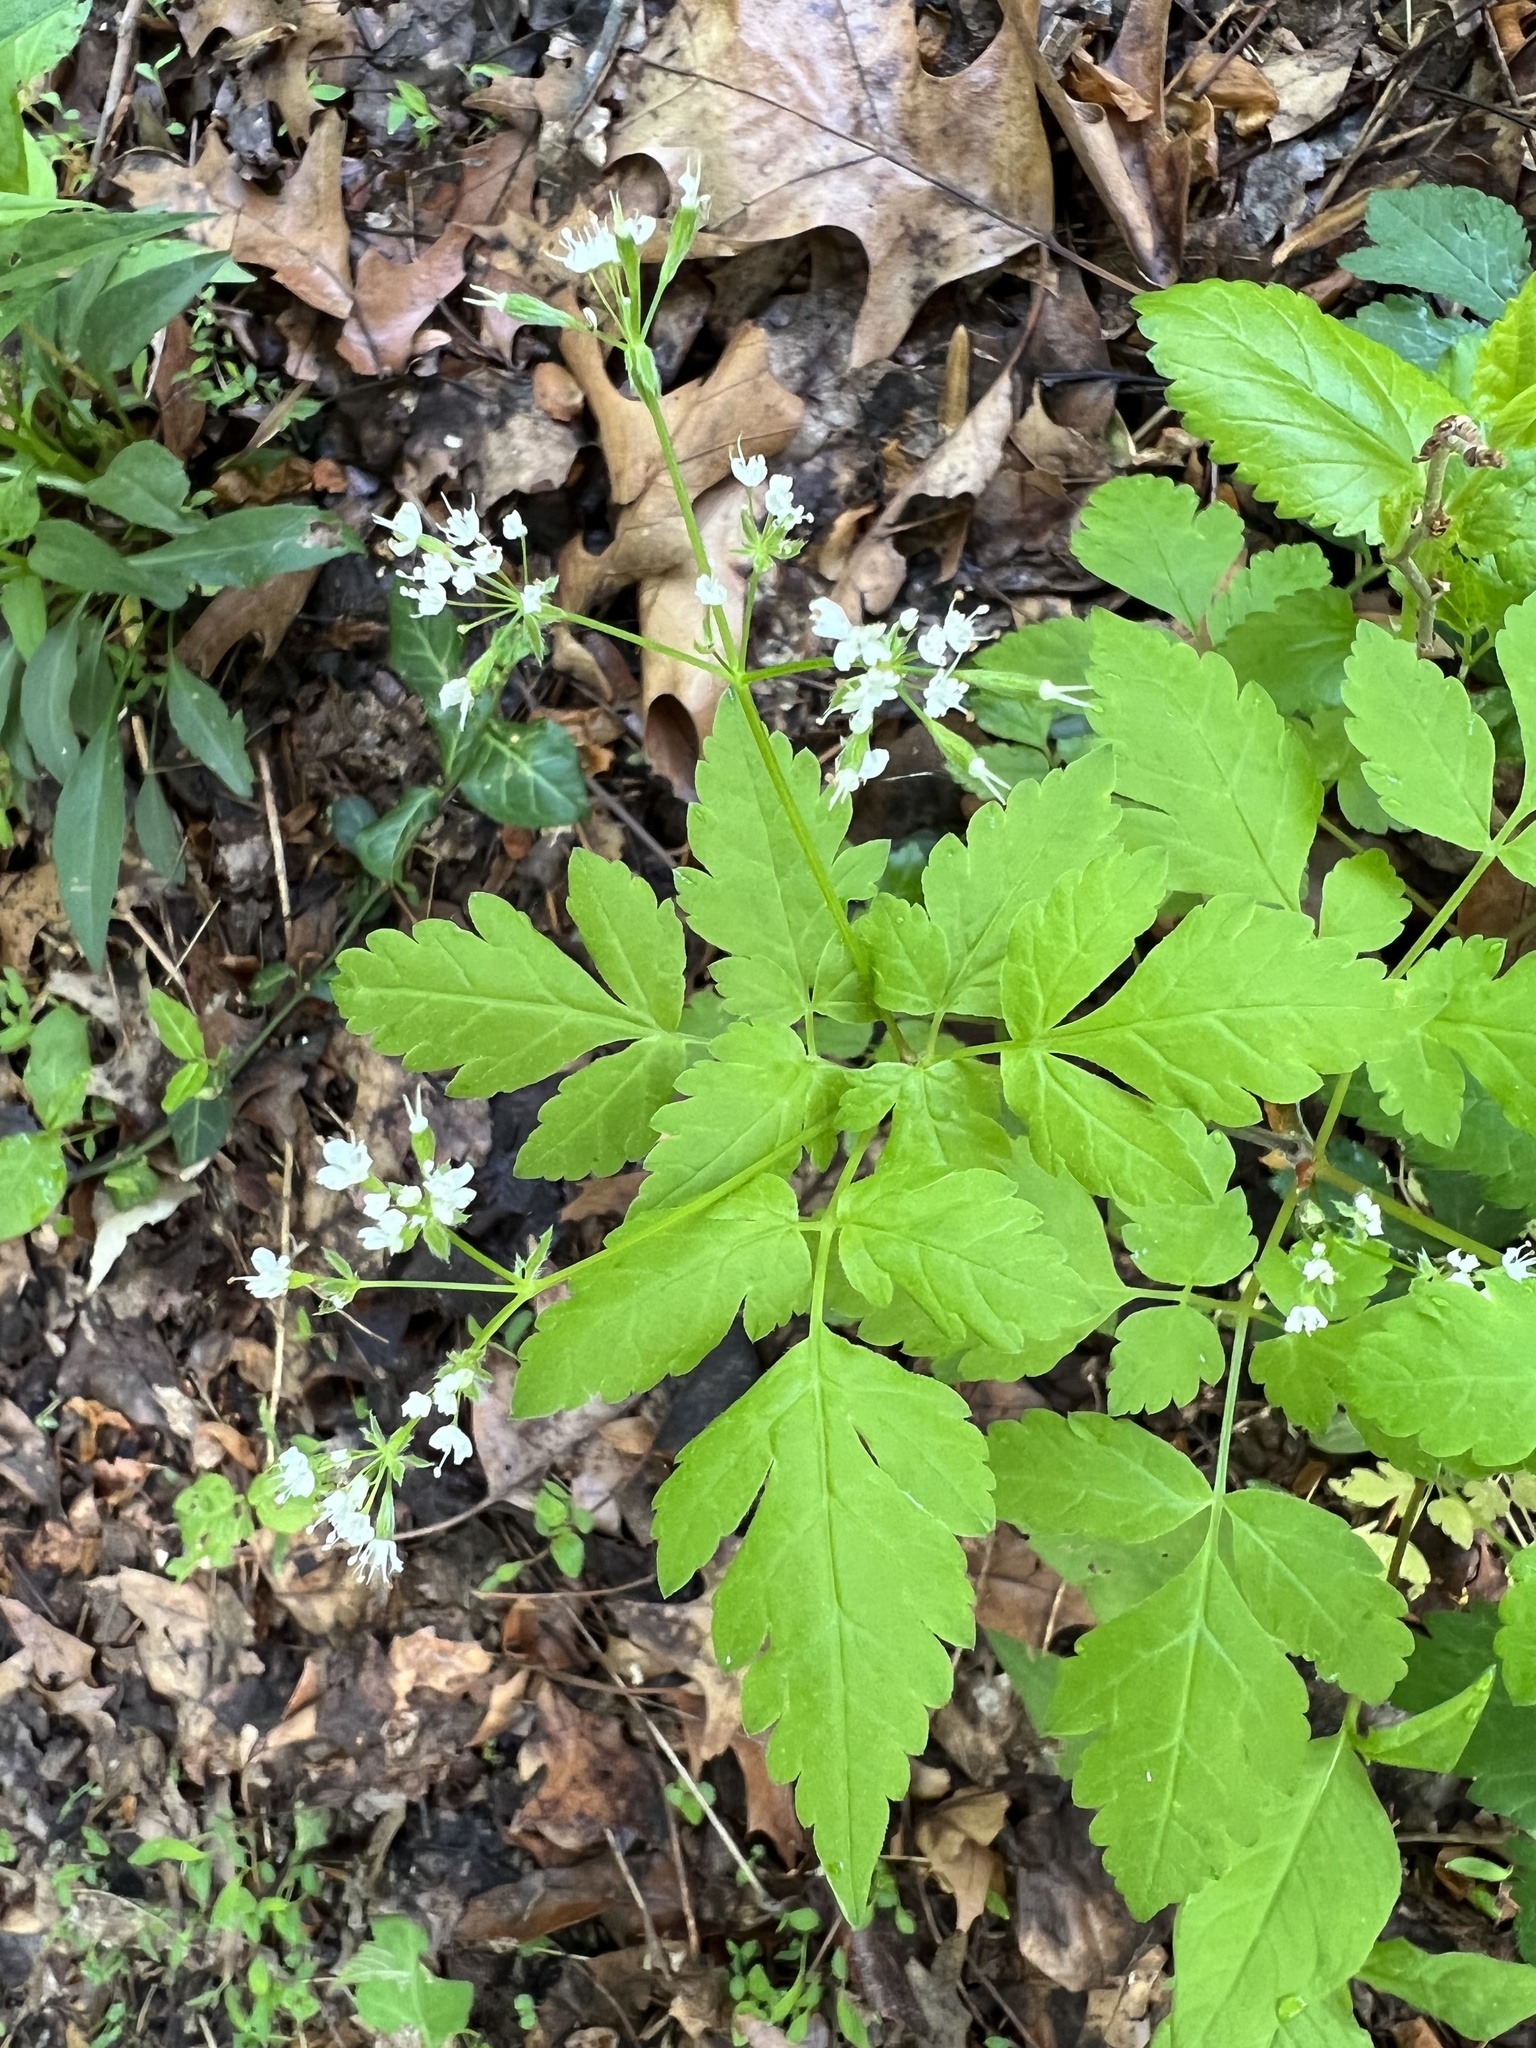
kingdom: Plantae
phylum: Tracheophyta
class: Magnoliopsida
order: Apiales
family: Apiaceae
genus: Osmorhiza
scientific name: Osmorhiza longistylis
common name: Smooth sweet cicely
